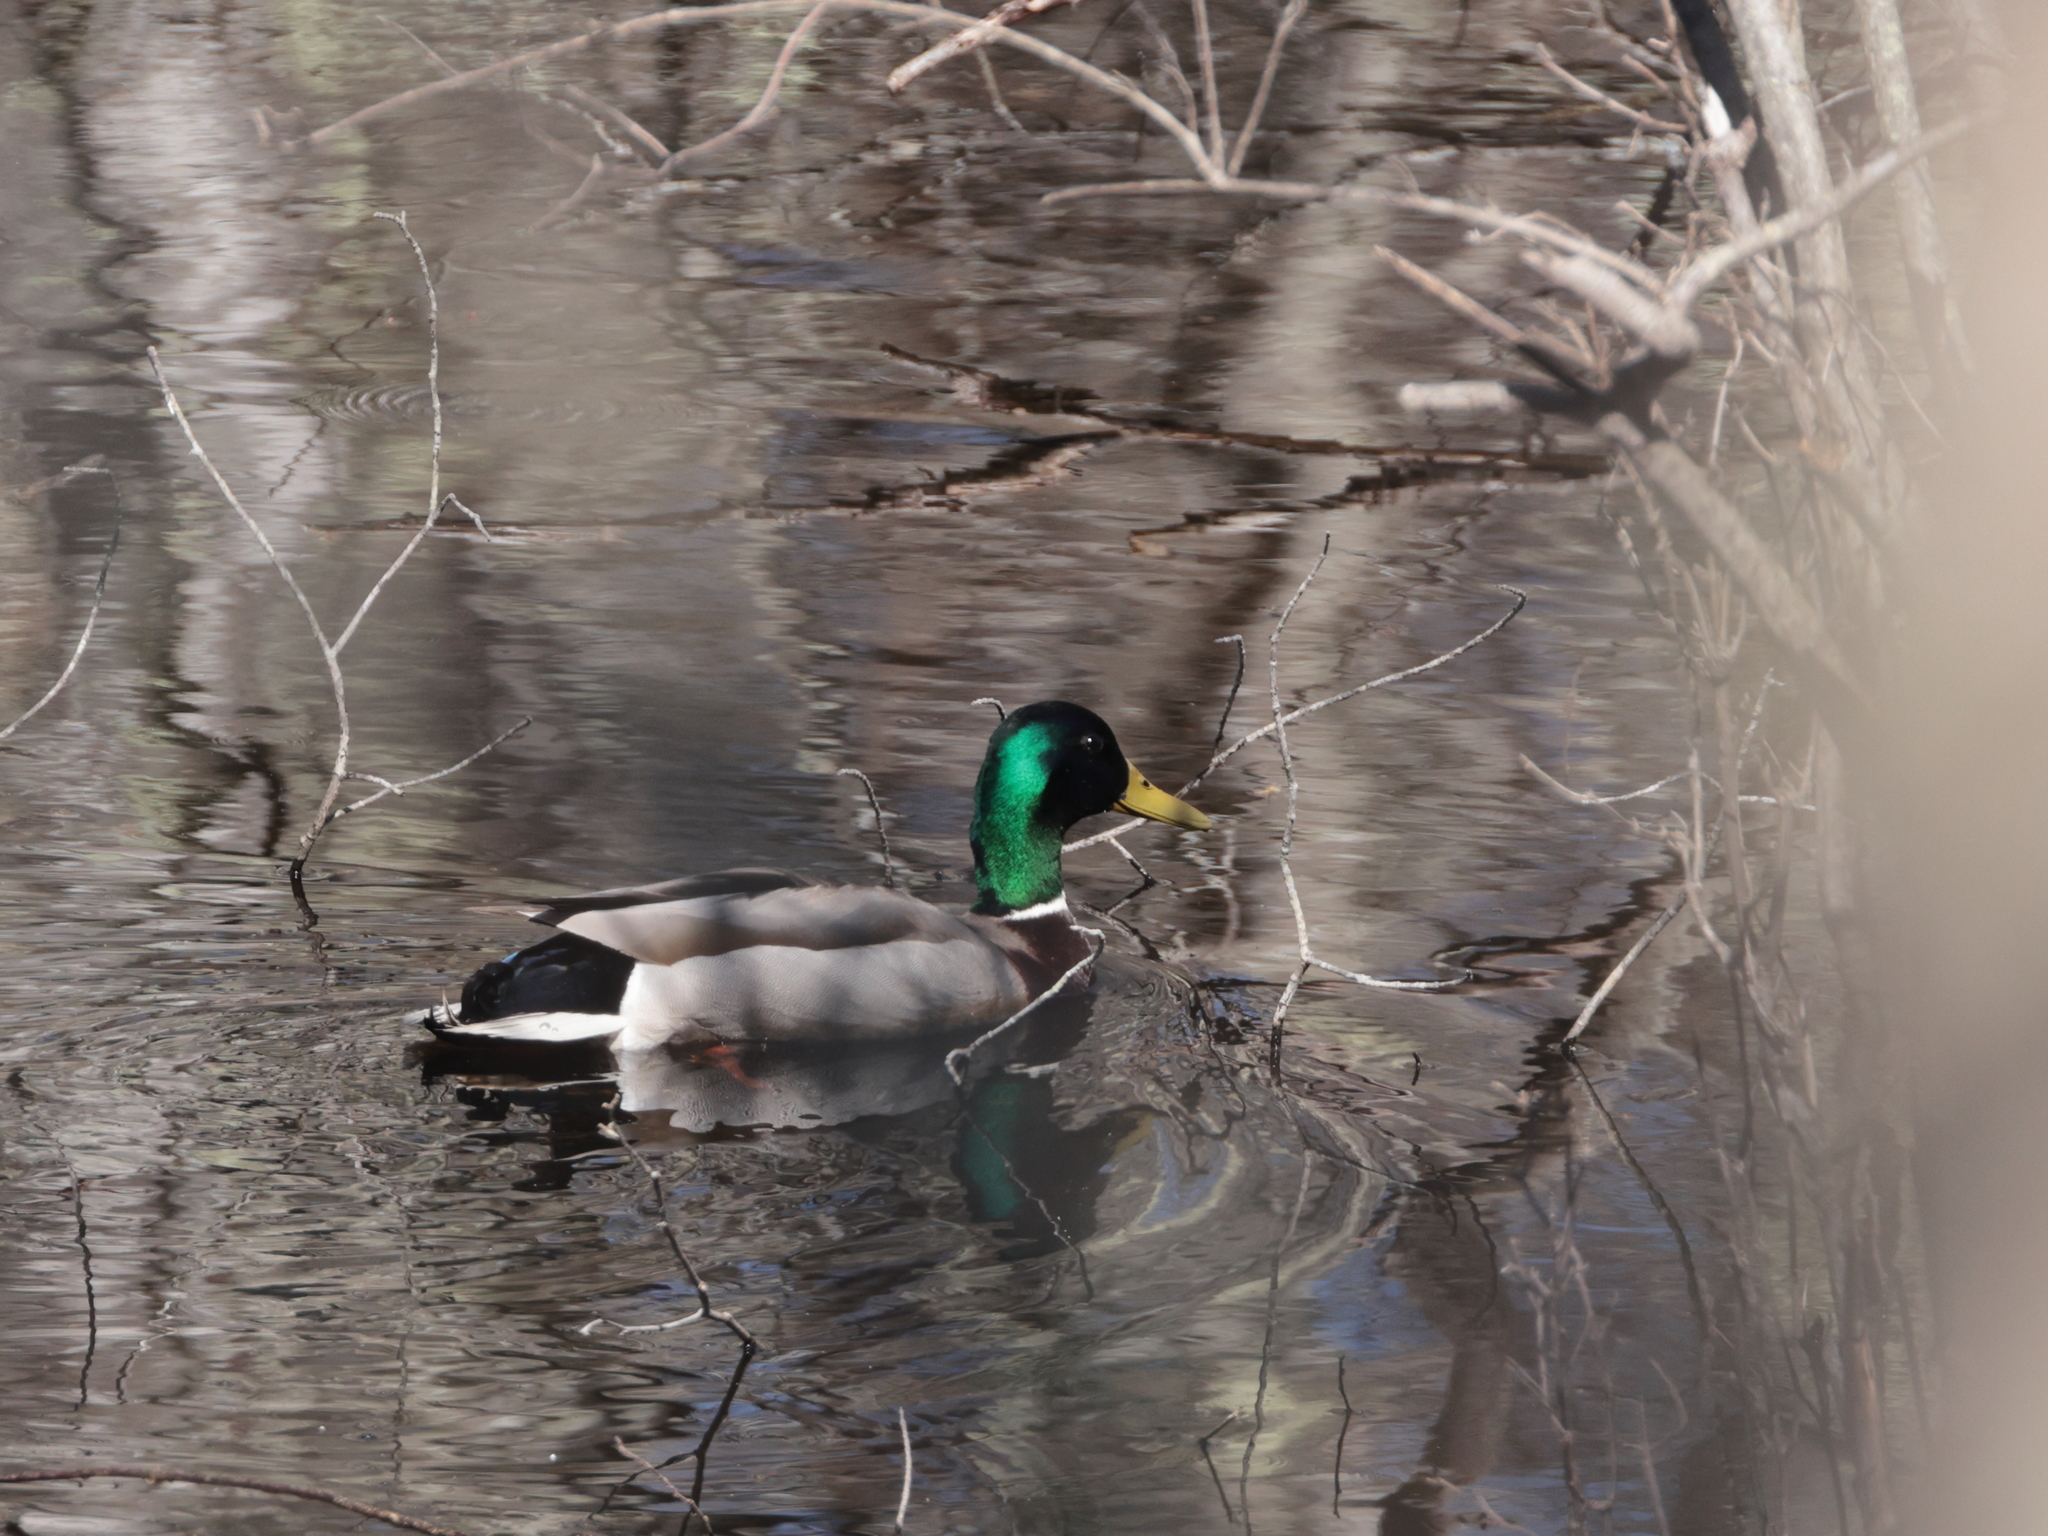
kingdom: Animalia
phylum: Chordata
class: Aves
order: Anseriformes
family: Anatidae
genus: Anas
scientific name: Anas platyrhynchos
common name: Mallard
